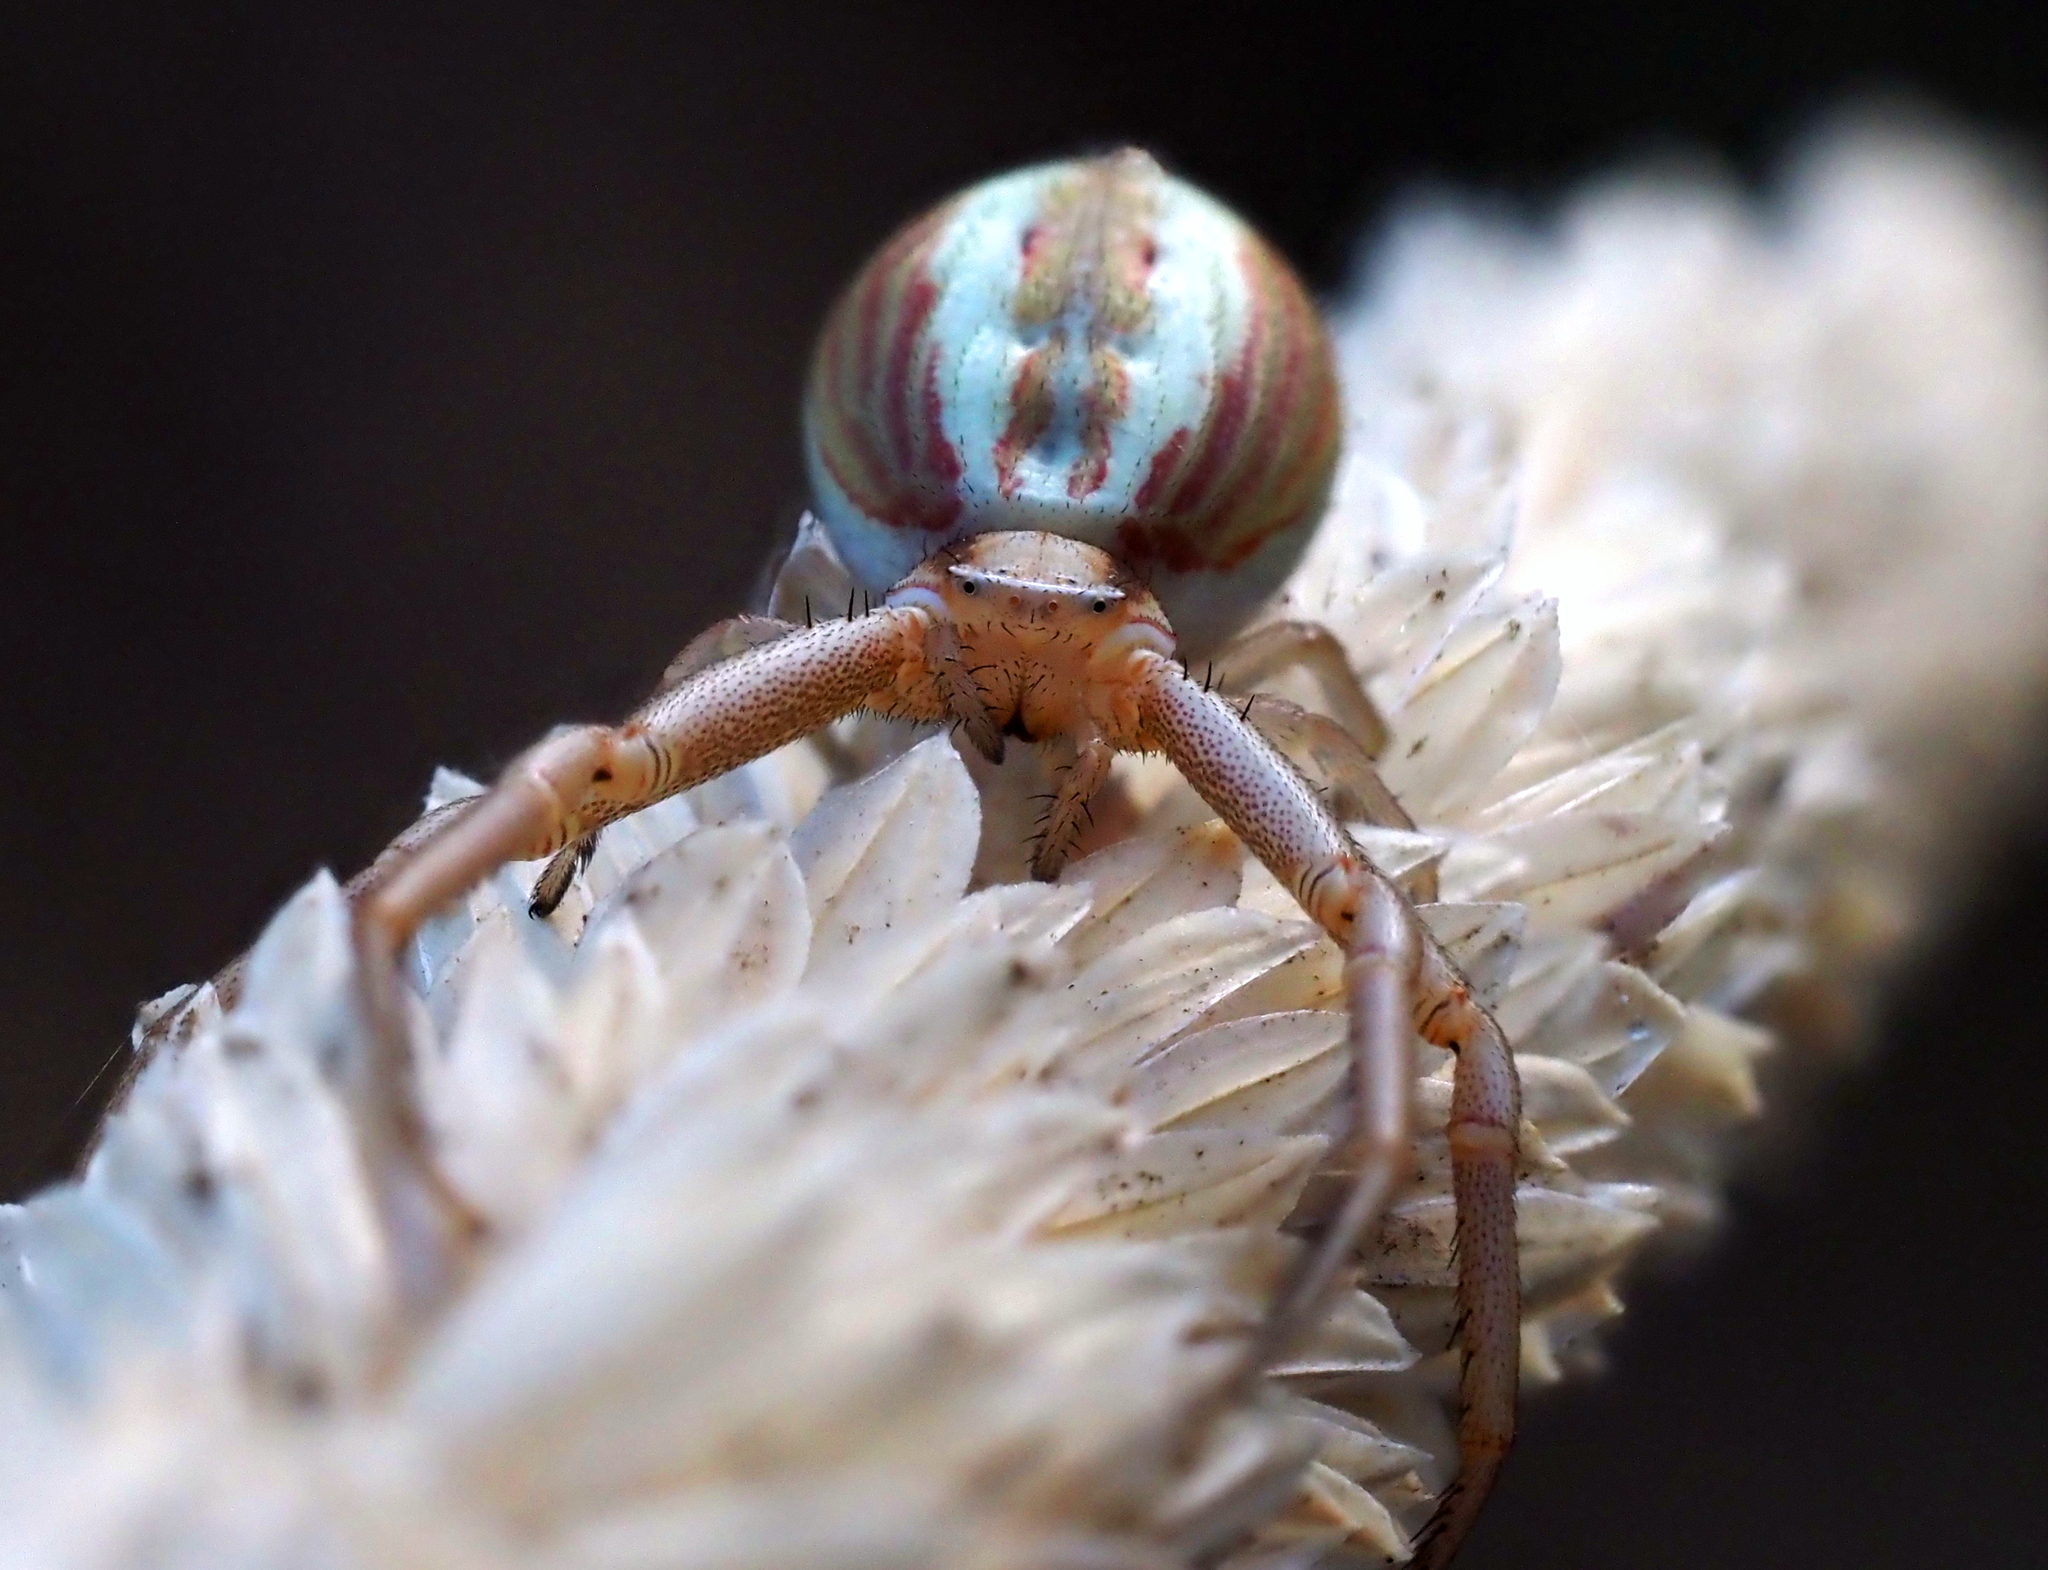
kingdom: Animalia
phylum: Arthropoda
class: Arachnida
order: Araneae
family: Thomisidae
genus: Runcinia
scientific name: Runcinia
